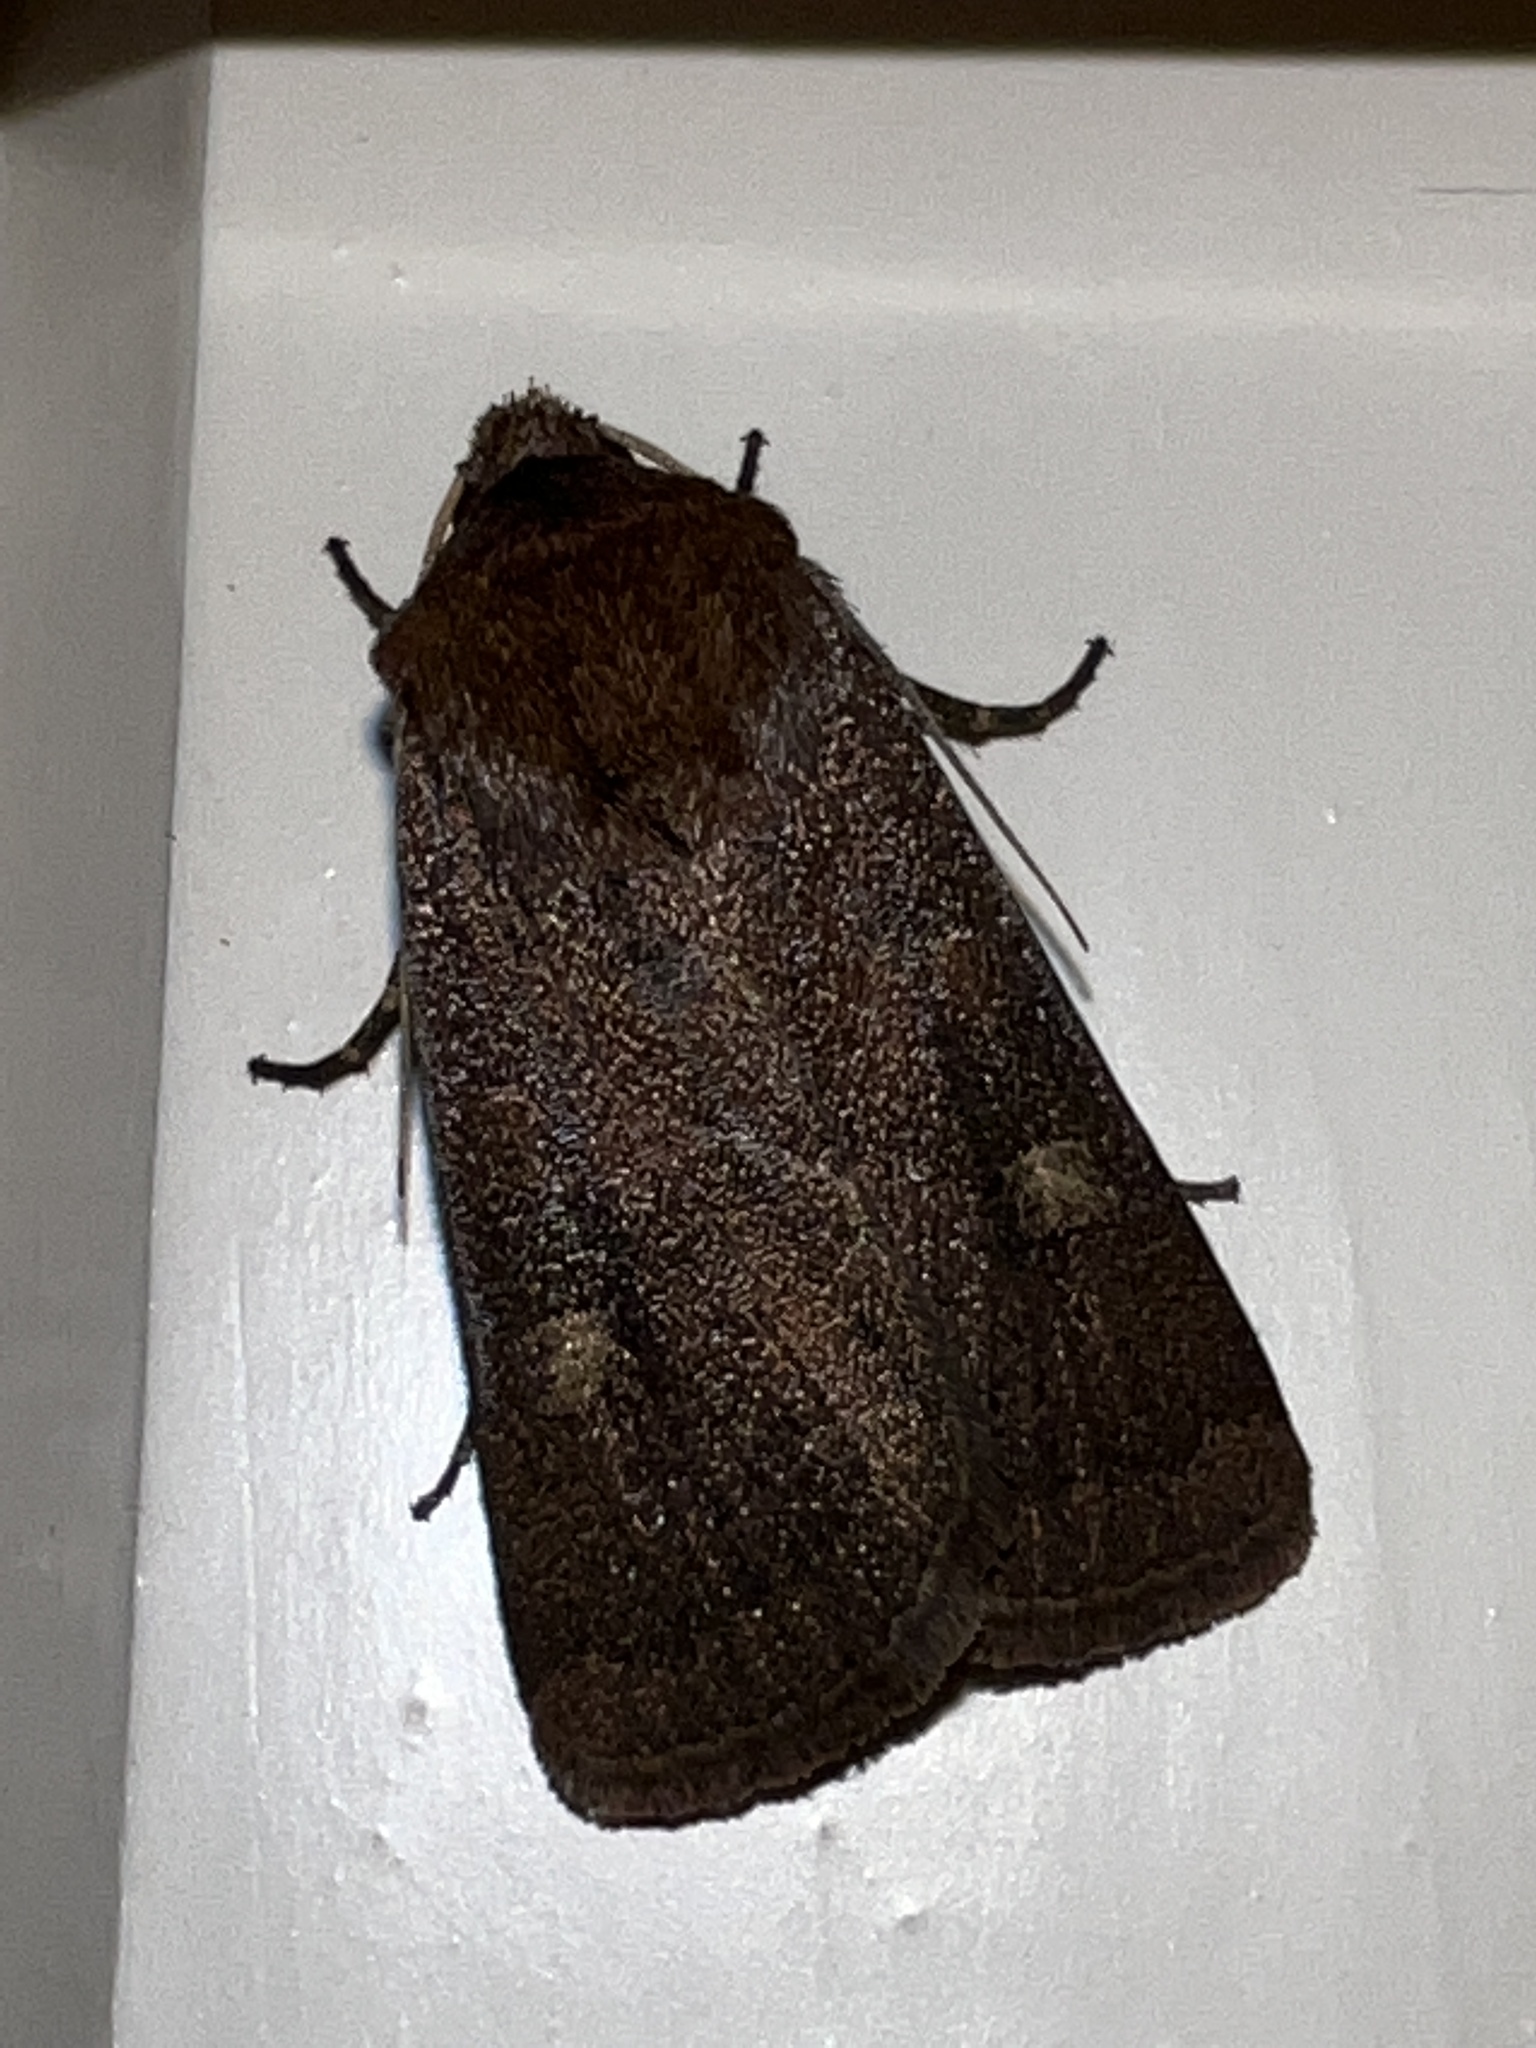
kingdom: Animalia
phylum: Arthropoda
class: Insecta
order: Lepidoptera
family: Noctuidae
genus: Xestia
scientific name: Xestia xanthographa
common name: Square-spot rustic
